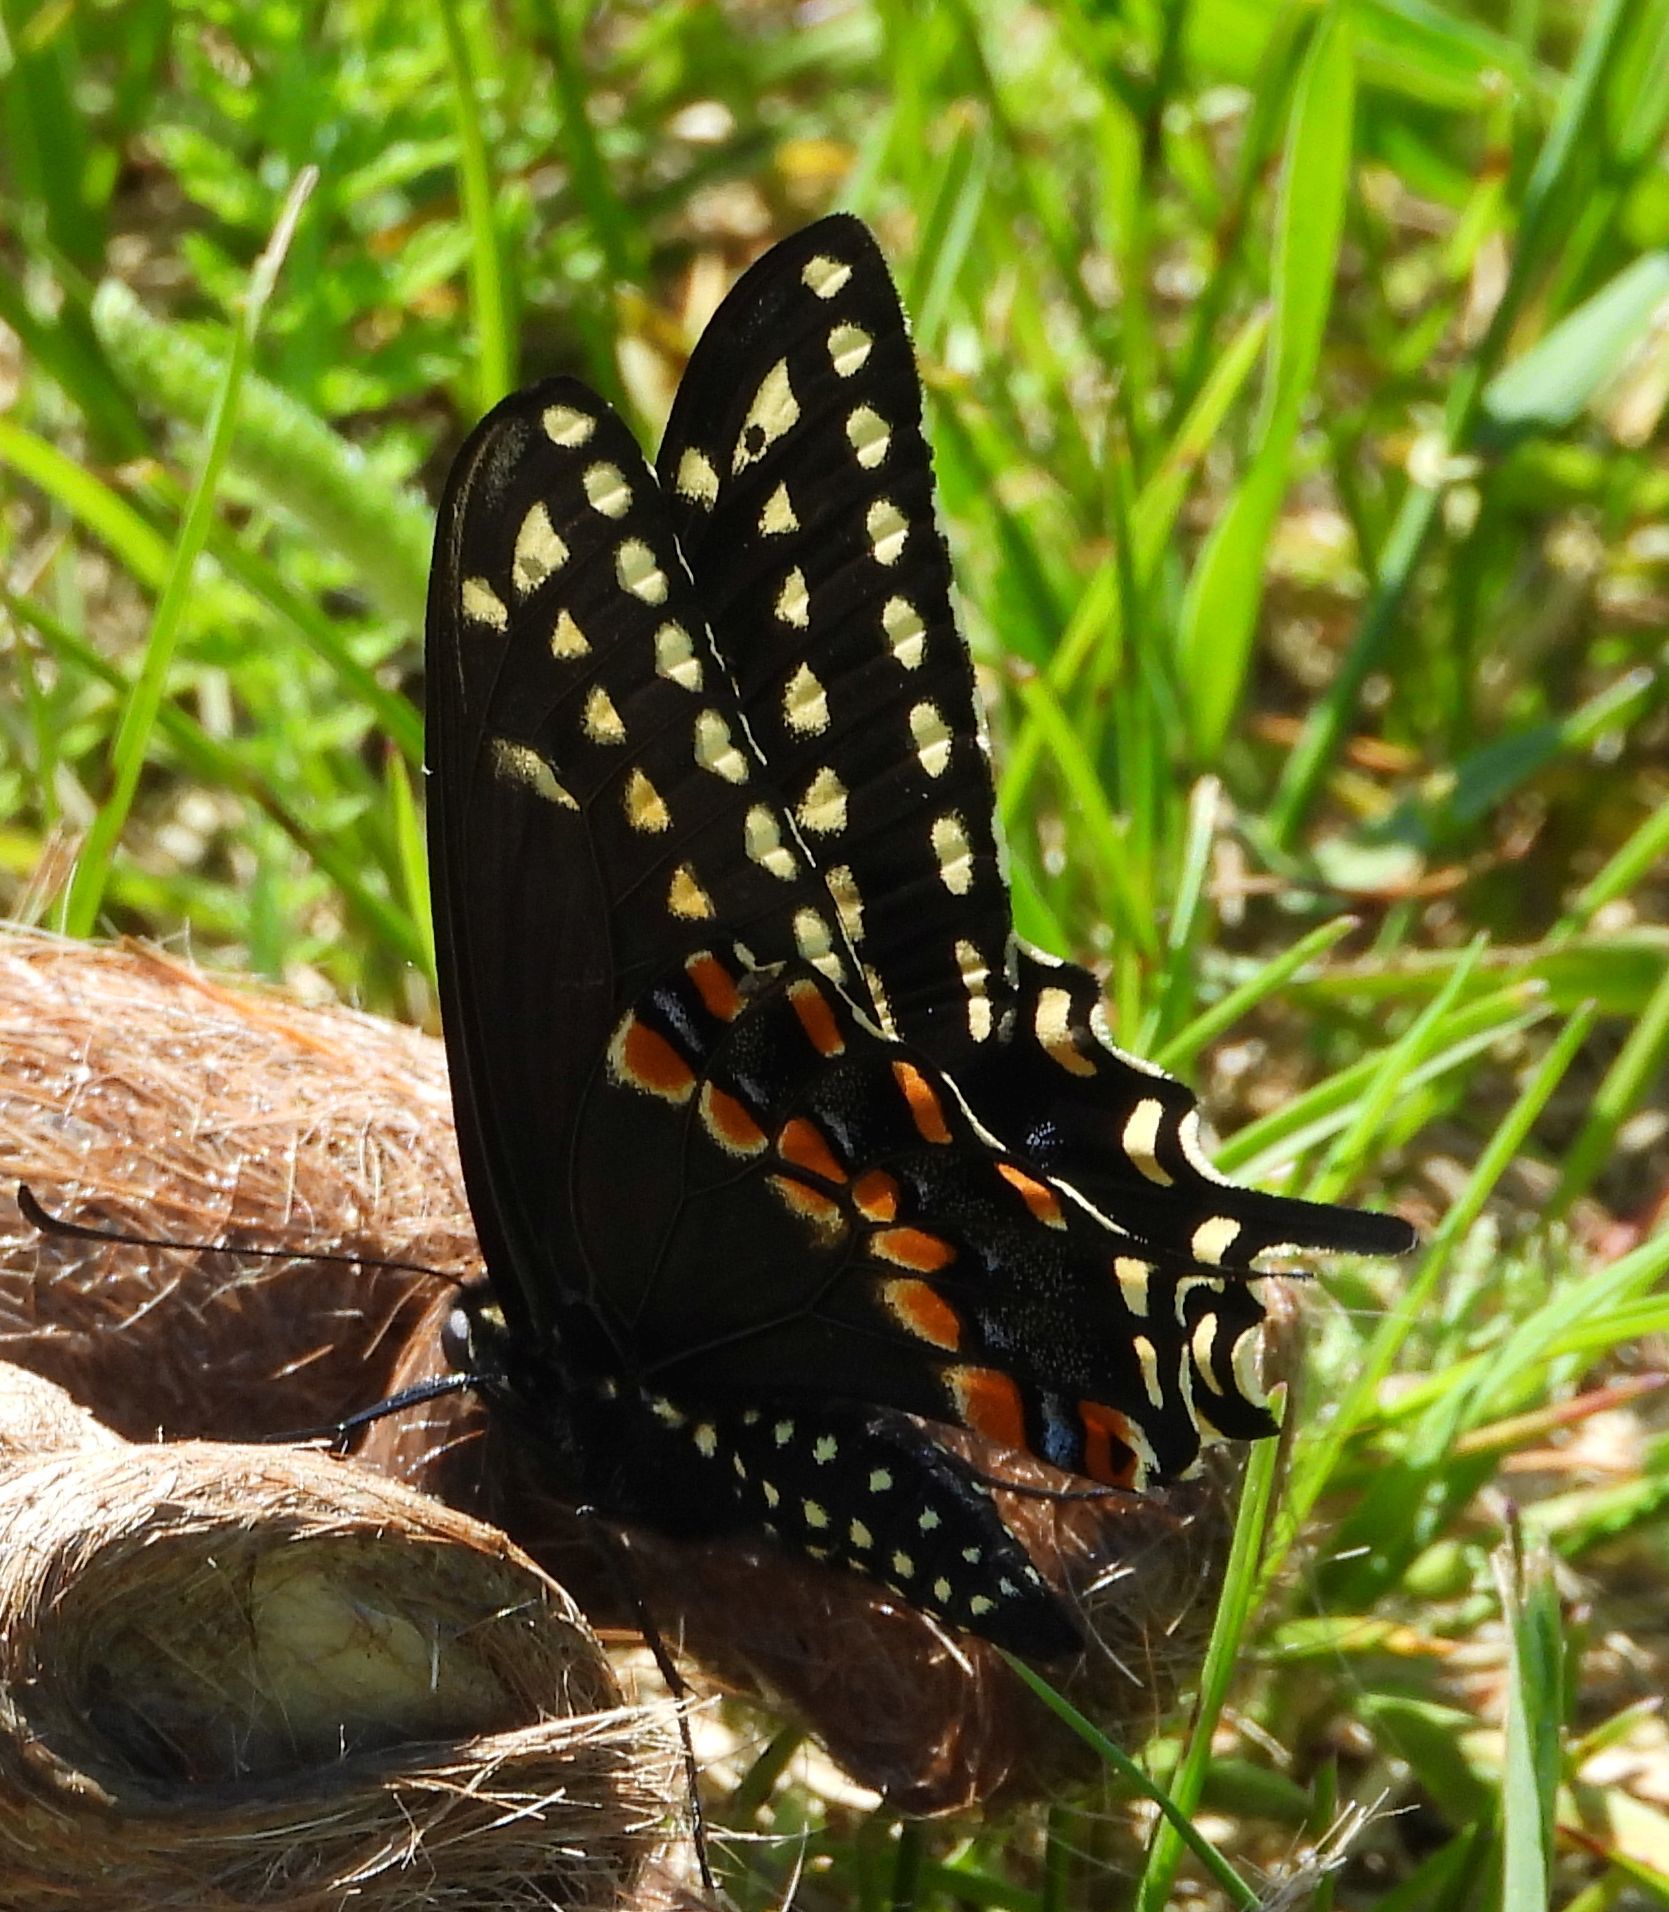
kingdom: Animalia
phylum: Arthropoda
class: Insecta
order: Lepidoptera
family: Papilionidae
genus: Papilio
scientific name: Papilio polyxenes
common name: Black swallowtail
